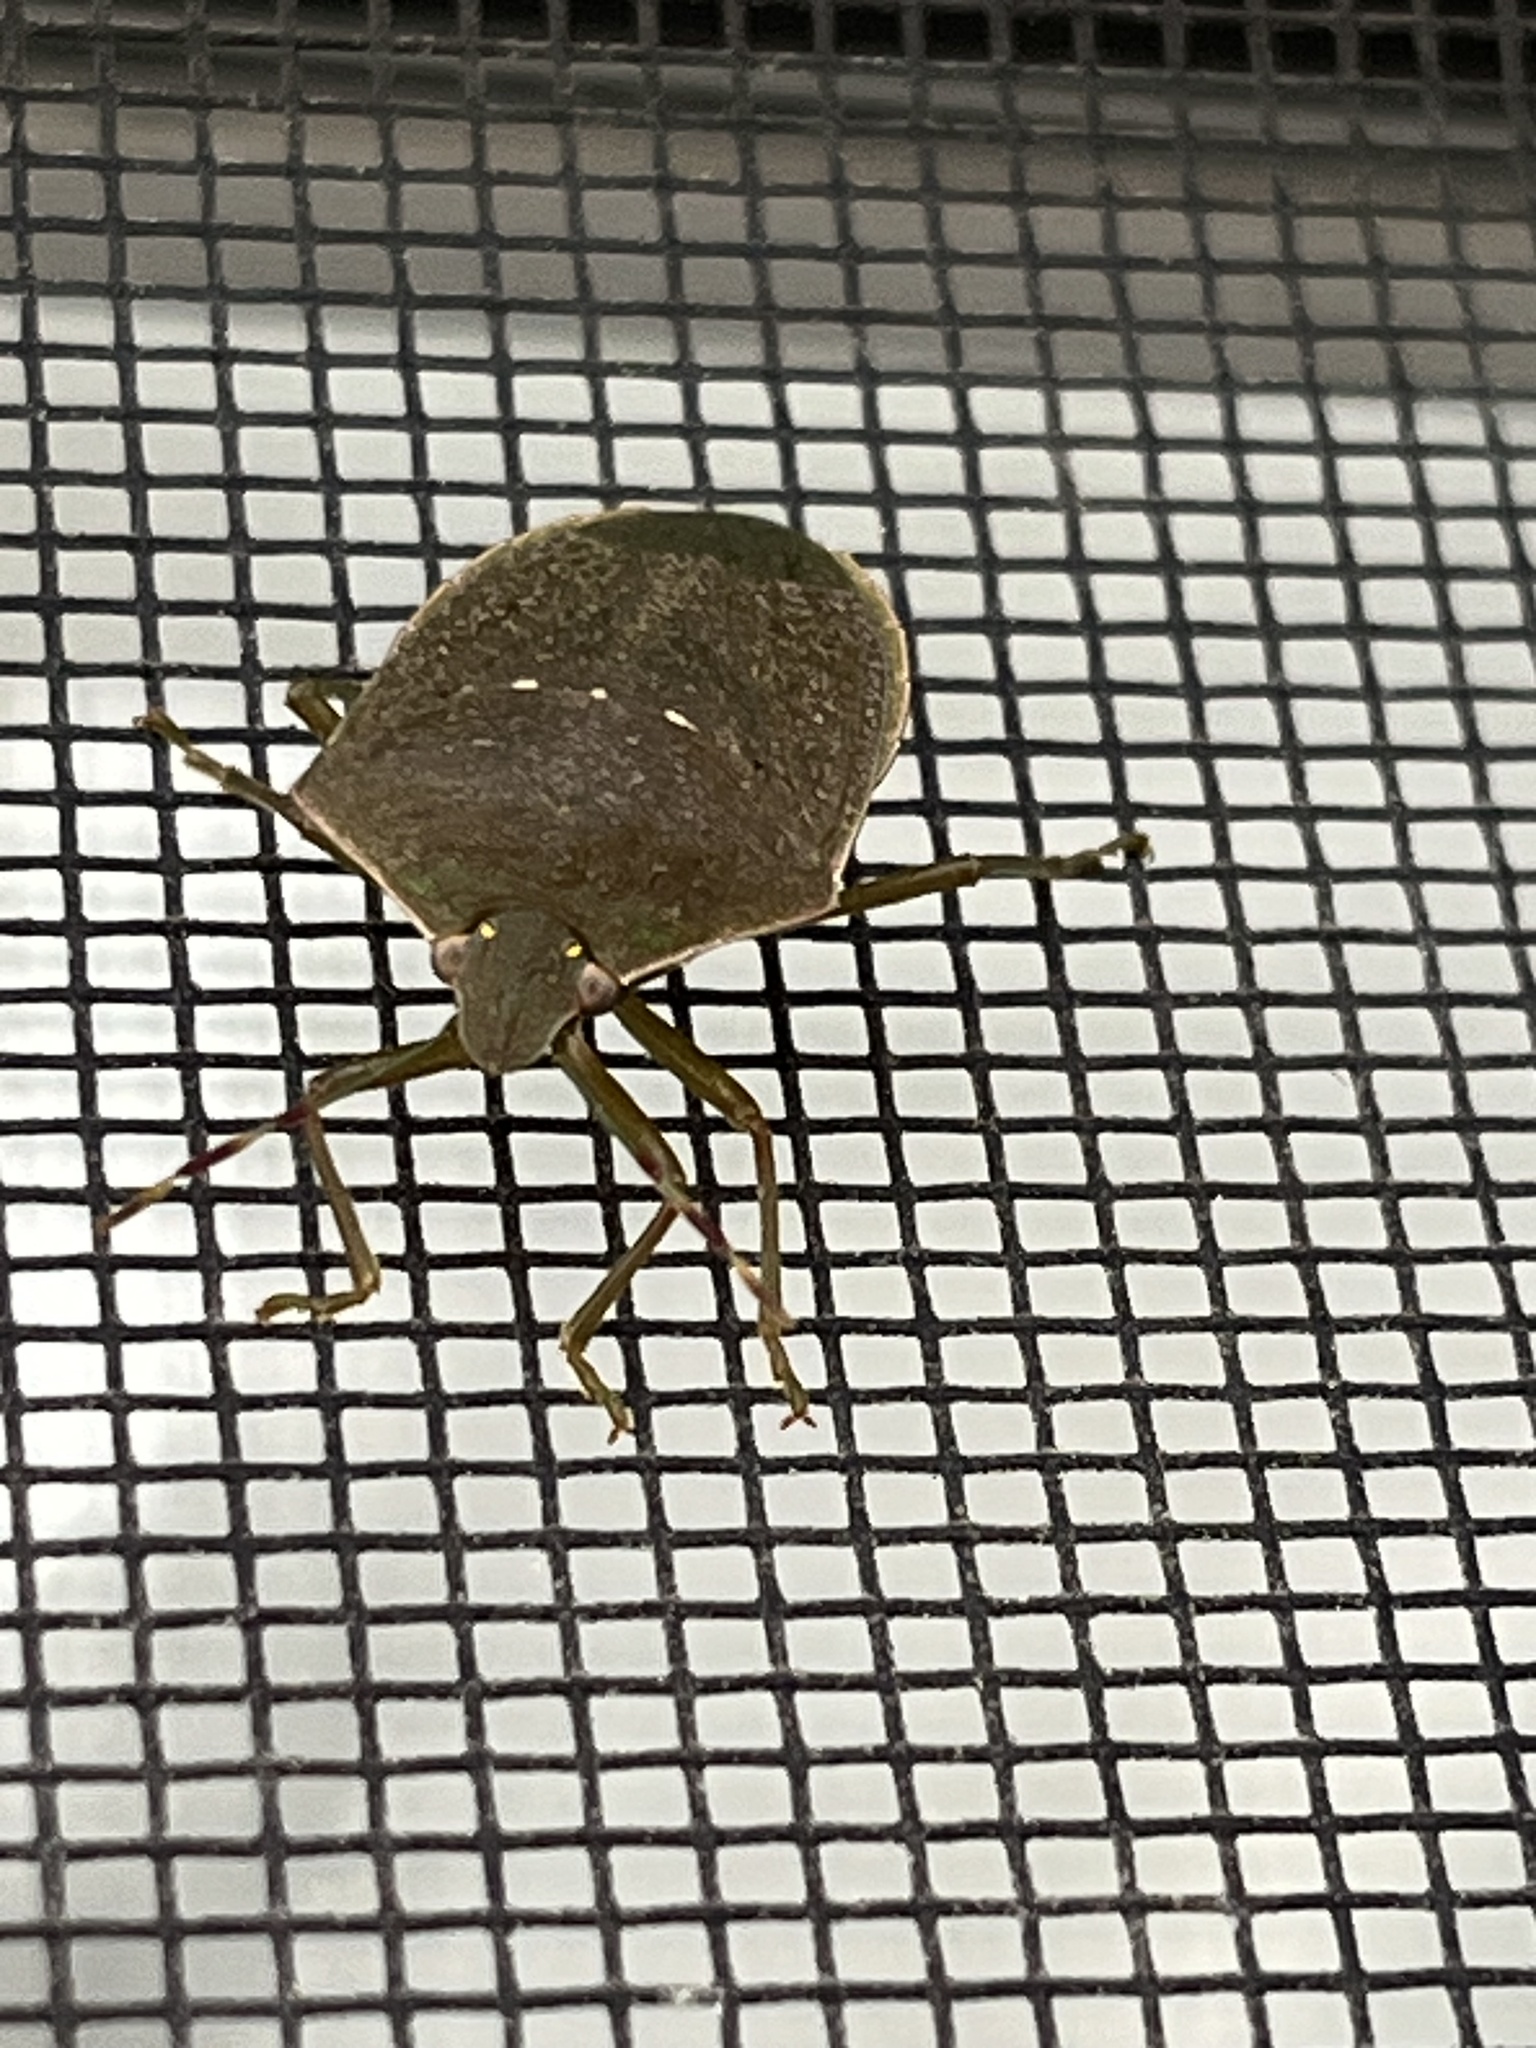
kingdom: Animalia
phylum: Arthropoda
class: Insecta
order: Hemiptera
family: Pentatomidae
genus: Nezara
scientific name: Nezara viridula
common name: Southern green stink bug
